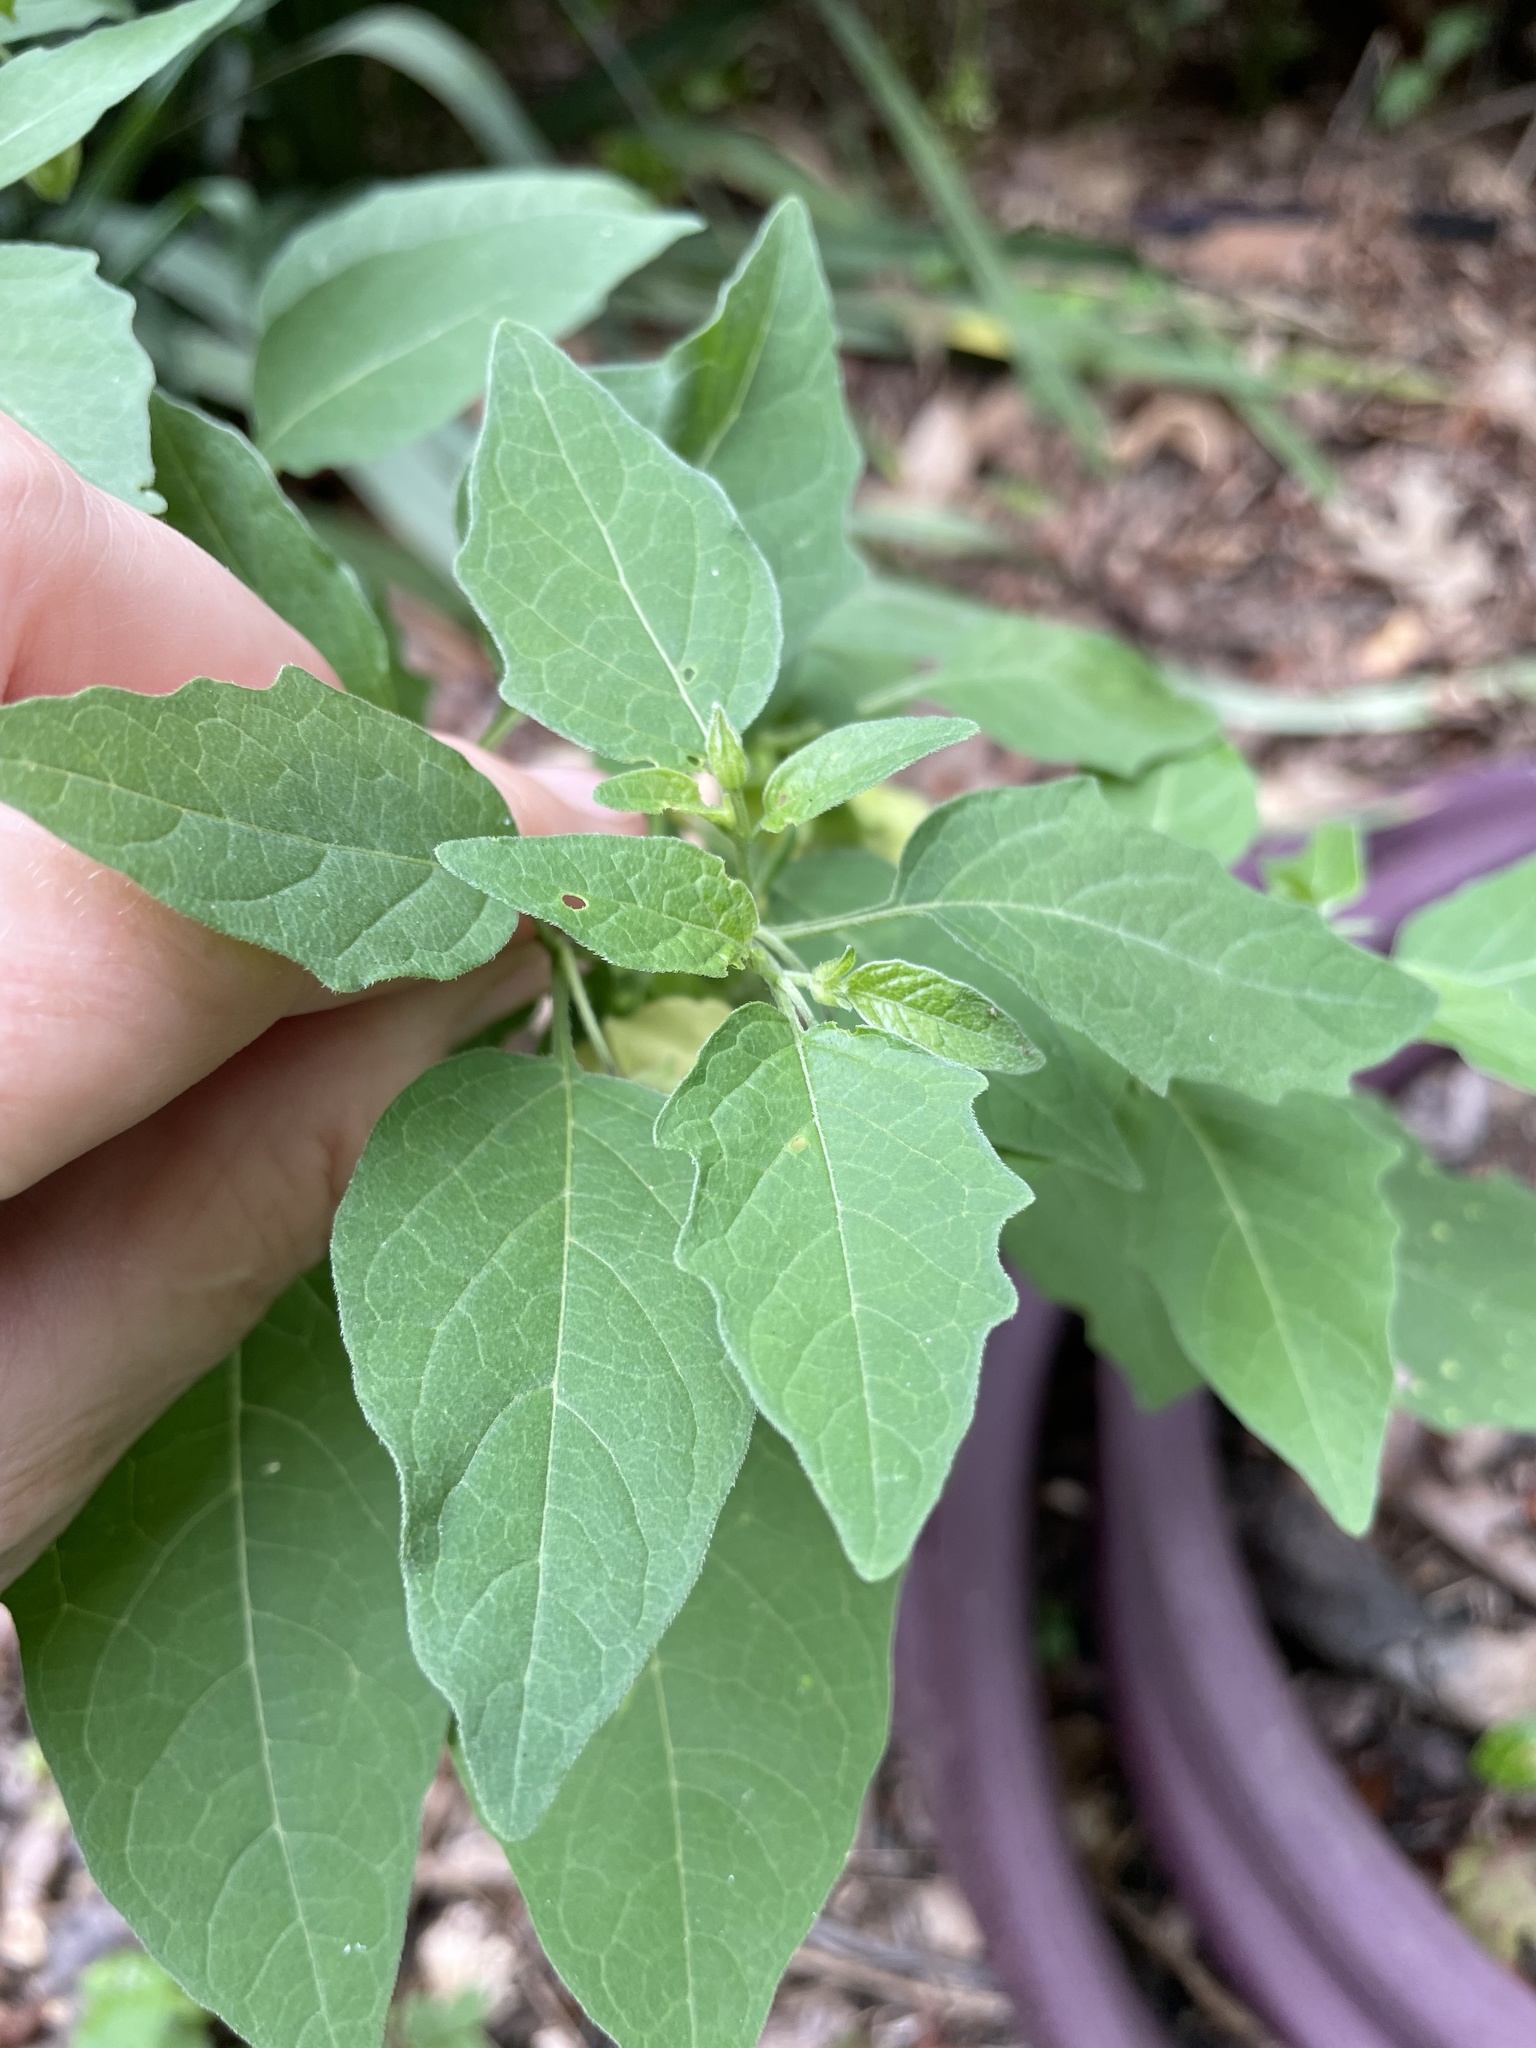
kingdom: Plantae
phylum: Tracheophyta
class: Magnoliopsida
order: Solanales
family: Solanaceae
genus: Physalis
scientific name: Physalis longifolia
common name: Common ground-cherry
